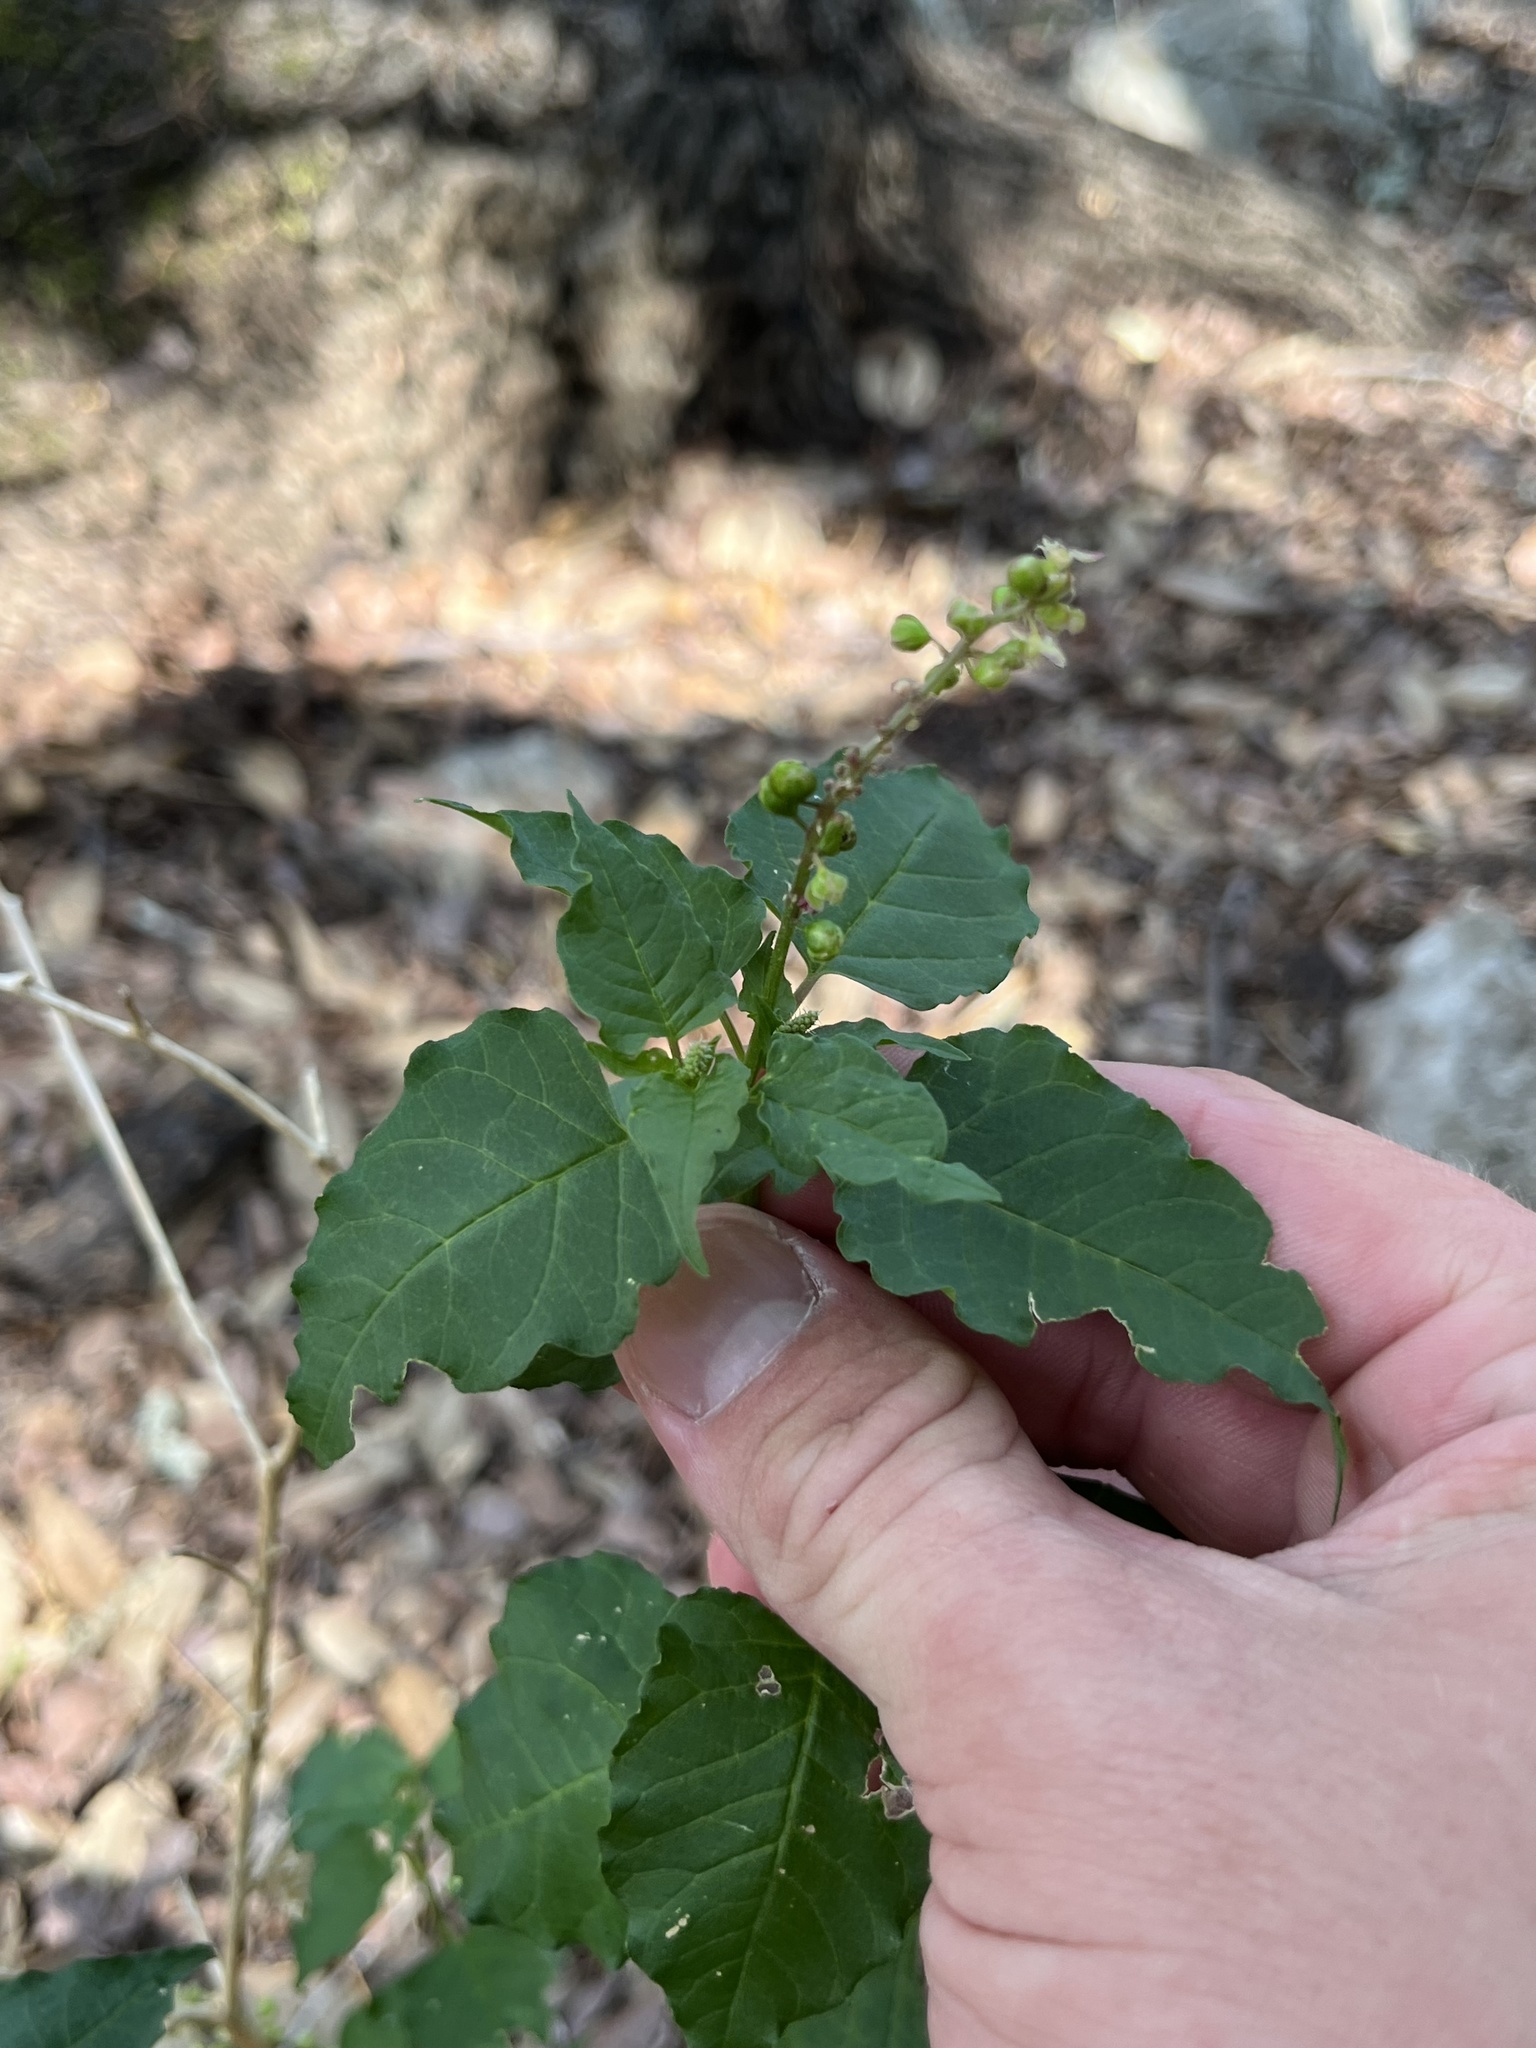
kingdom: Plantae
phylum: Tracheophyta
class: Magnoliopsida
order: Caryophyllales
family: Phytolaccaceae
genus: Rivina
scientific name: Rivina humilis
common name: Rougeplant
